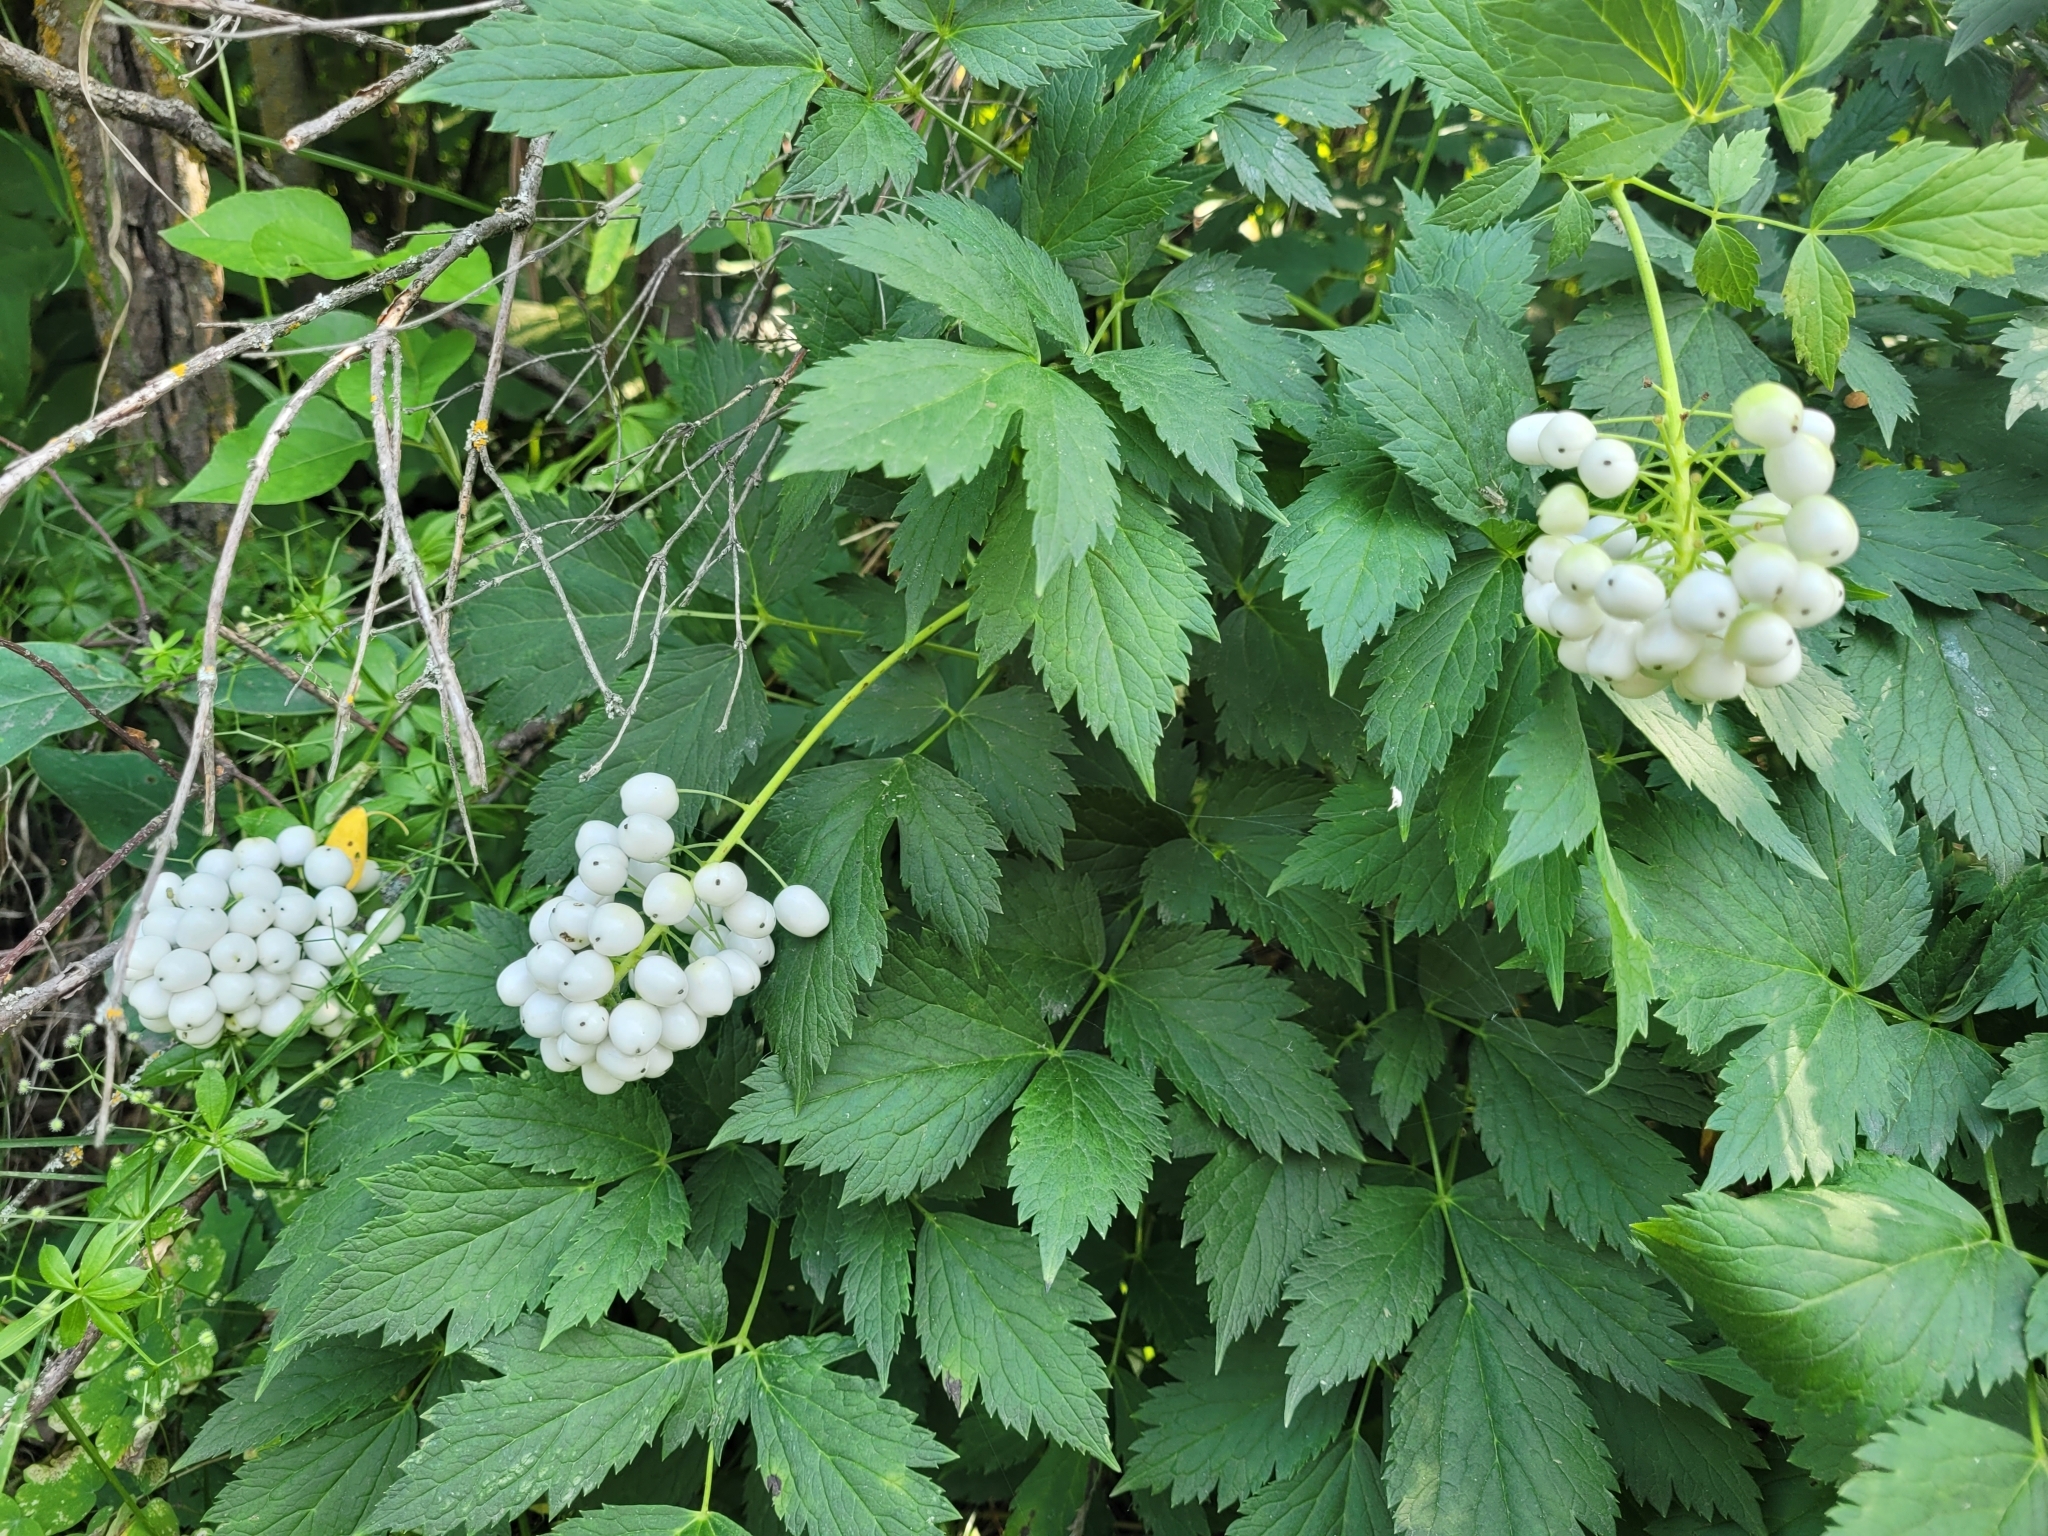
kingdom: Plantae
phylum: Tracheophyta
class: Magnoliopsida
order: Ranunculales
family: Ranunculaceae
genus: Actaea
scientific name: Actaea rubra
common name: Red baneberry
